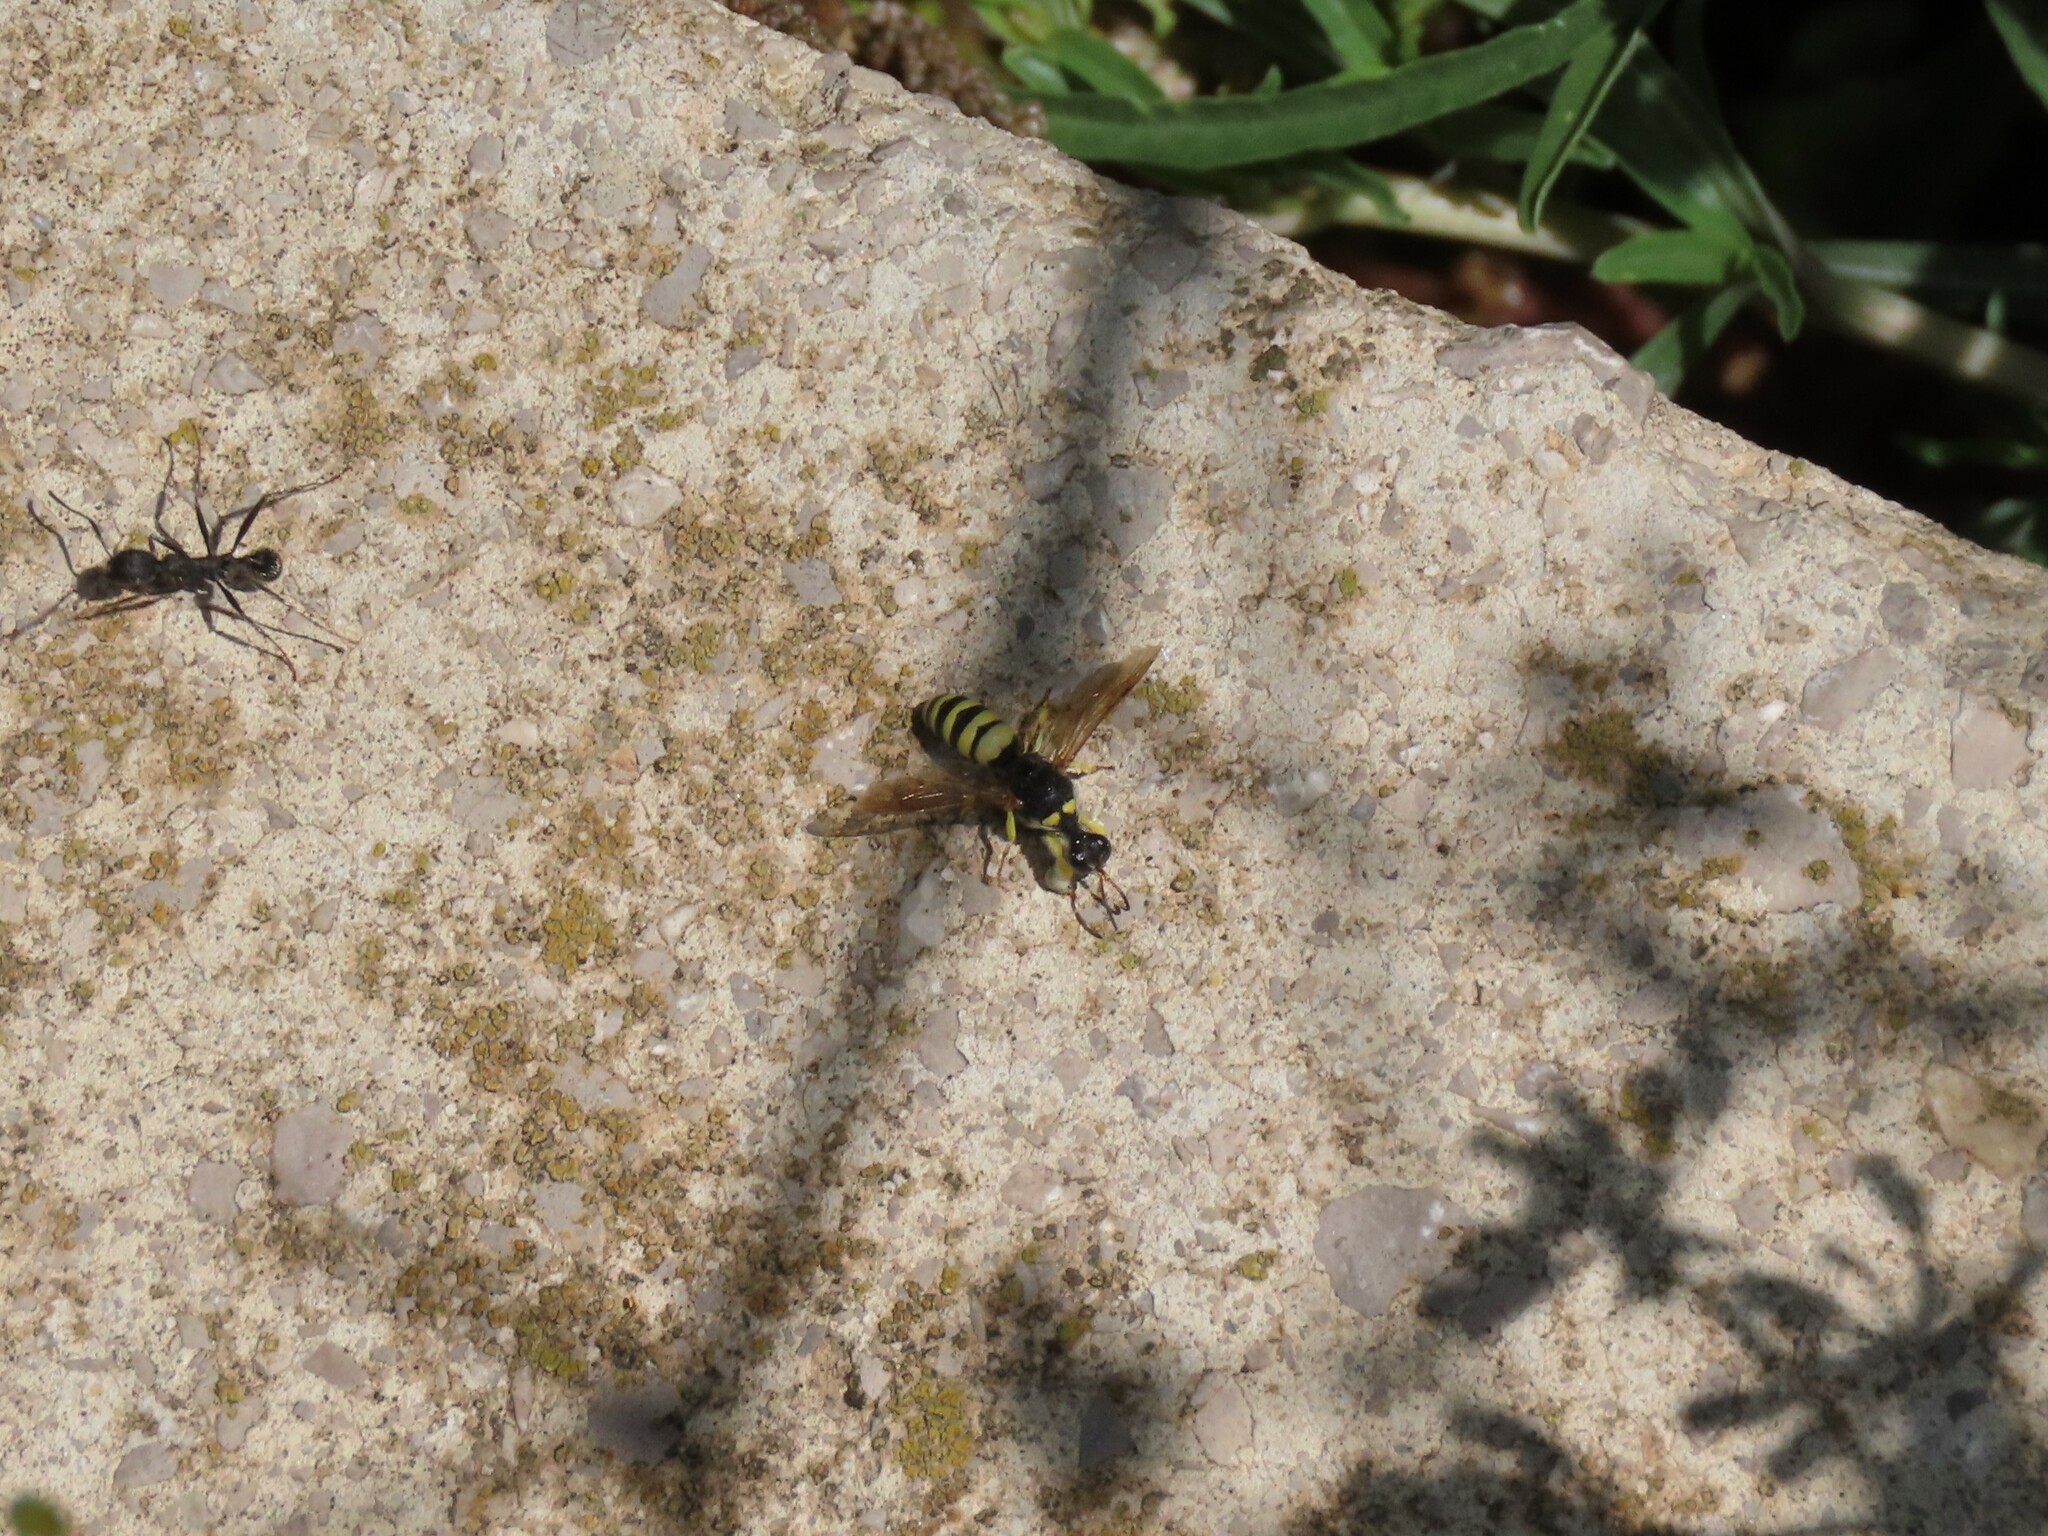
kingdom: Animalia
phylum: Arthropoda
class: Insecta
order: Hymenoptera
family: Crabronidae
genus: Lestica
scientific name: Lestica clypeata
